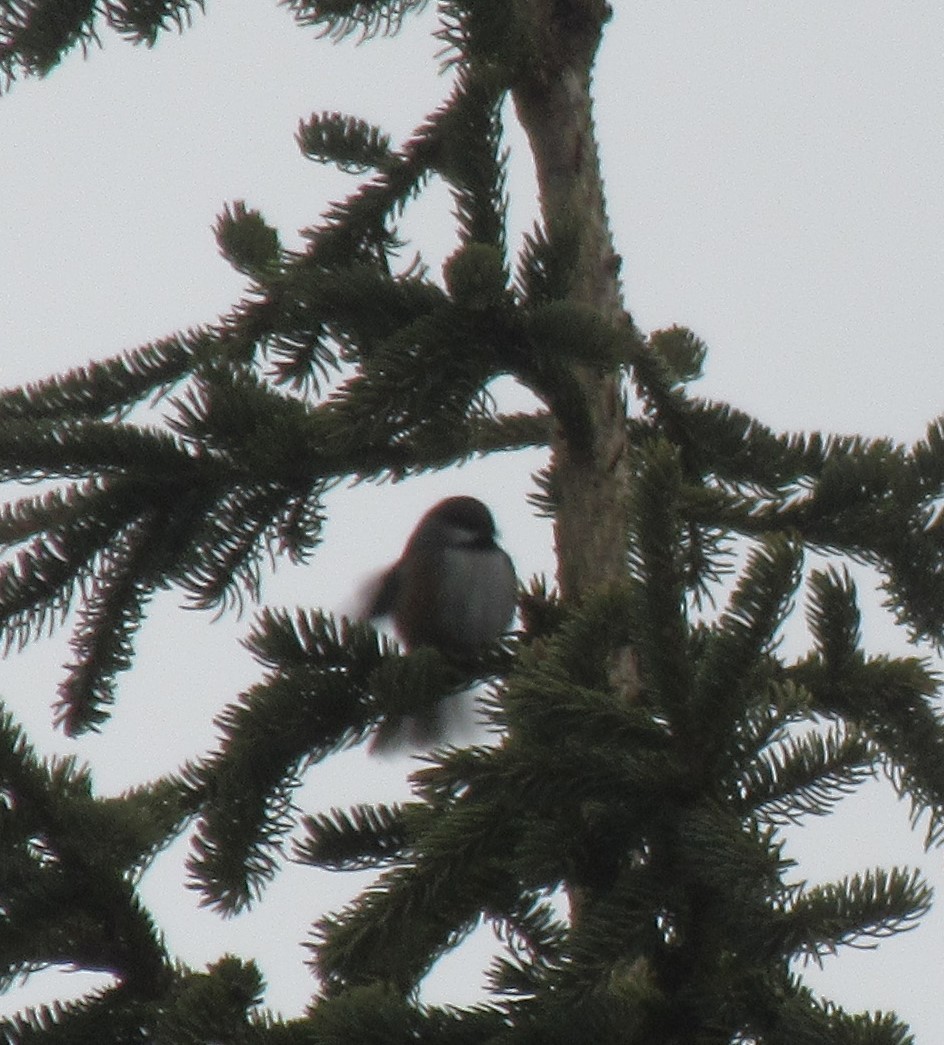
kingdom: Animalia
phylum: Chordata
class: Aves
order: Passeriformes
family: Paridae
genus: Poecile
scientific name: Poecile hudsonicus
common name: Boreal chickadee
